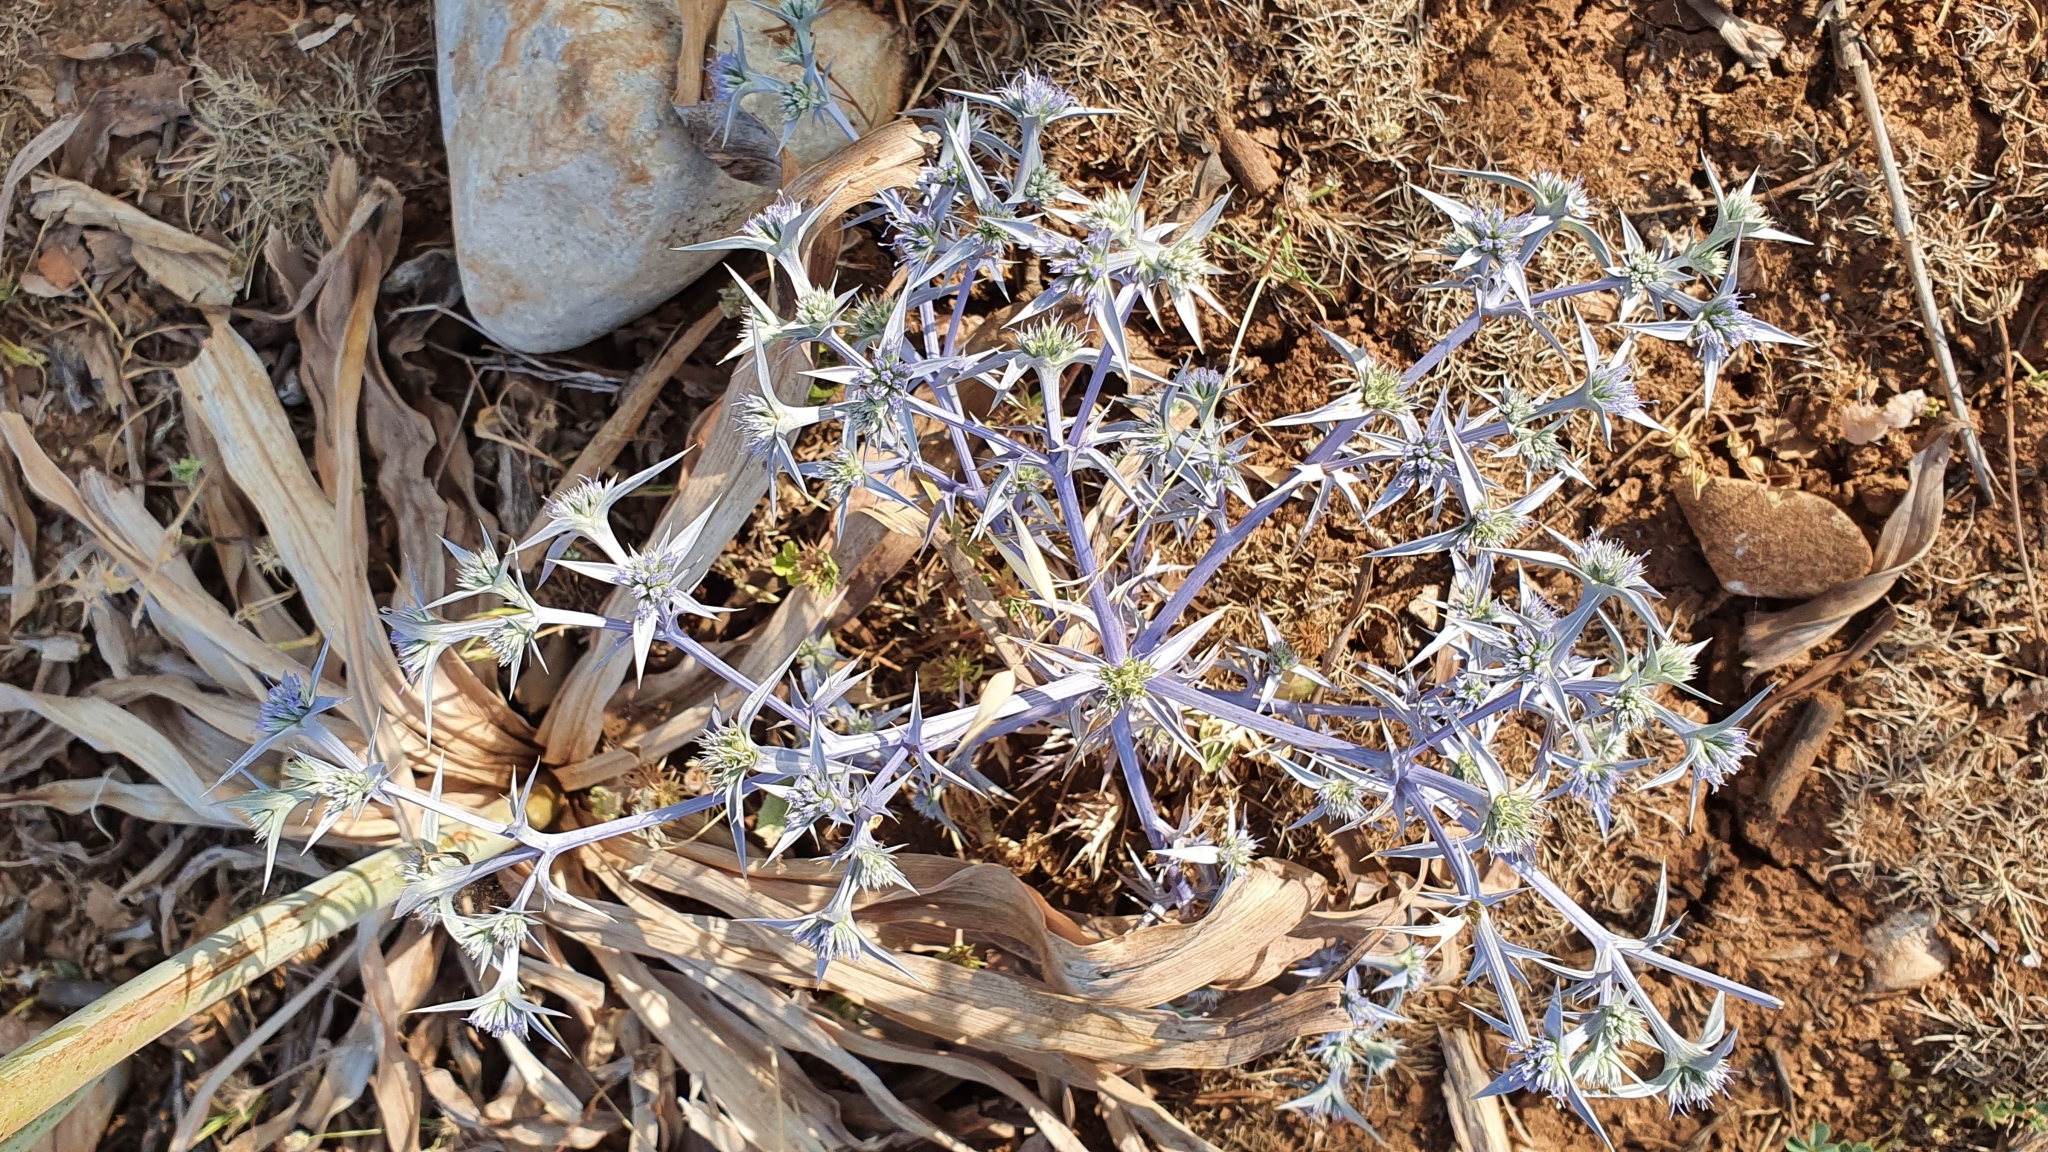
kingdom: Plantae
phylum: Tracheophyta
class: Magnoliopsida
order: Apiales
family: Apiaceae
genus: Eryngium
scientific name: Eryngium triquetrum
